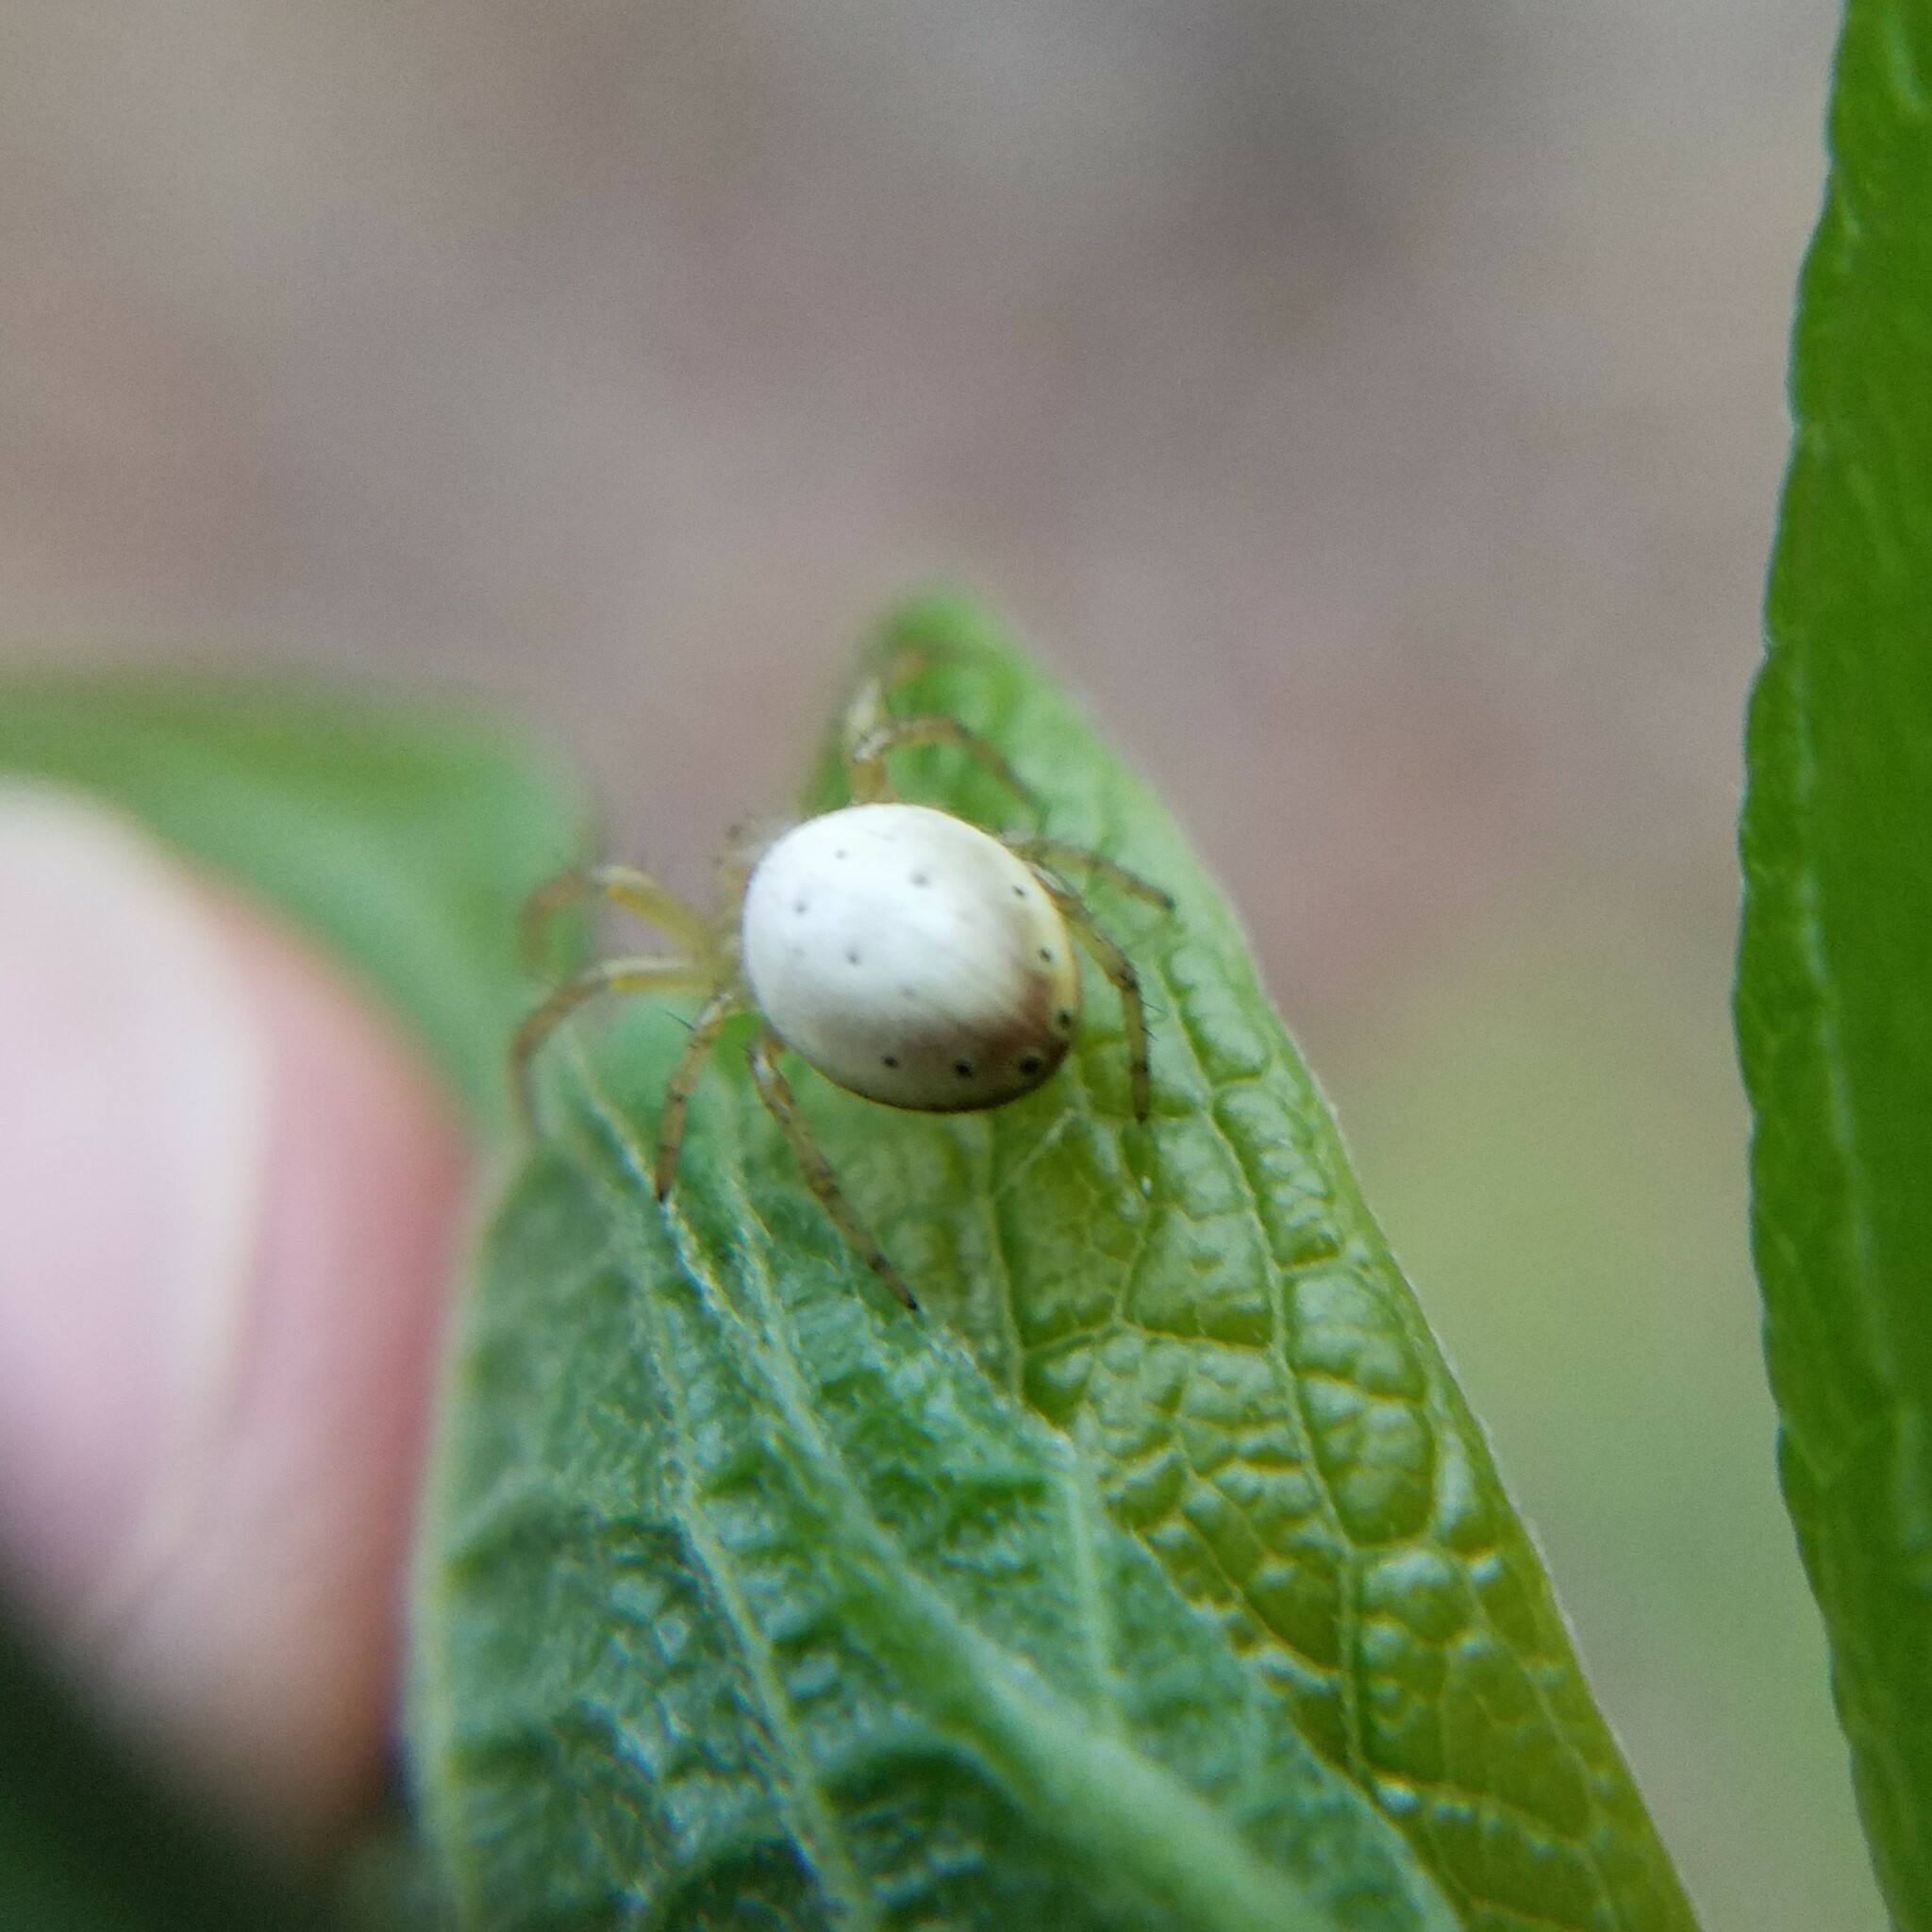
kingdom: Animalia
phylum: Arthropoda
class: Arachnida
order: Araneae
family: Araneidae
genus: Araniella
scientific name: Araniella displicata
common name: Sixspotted orb weaver
